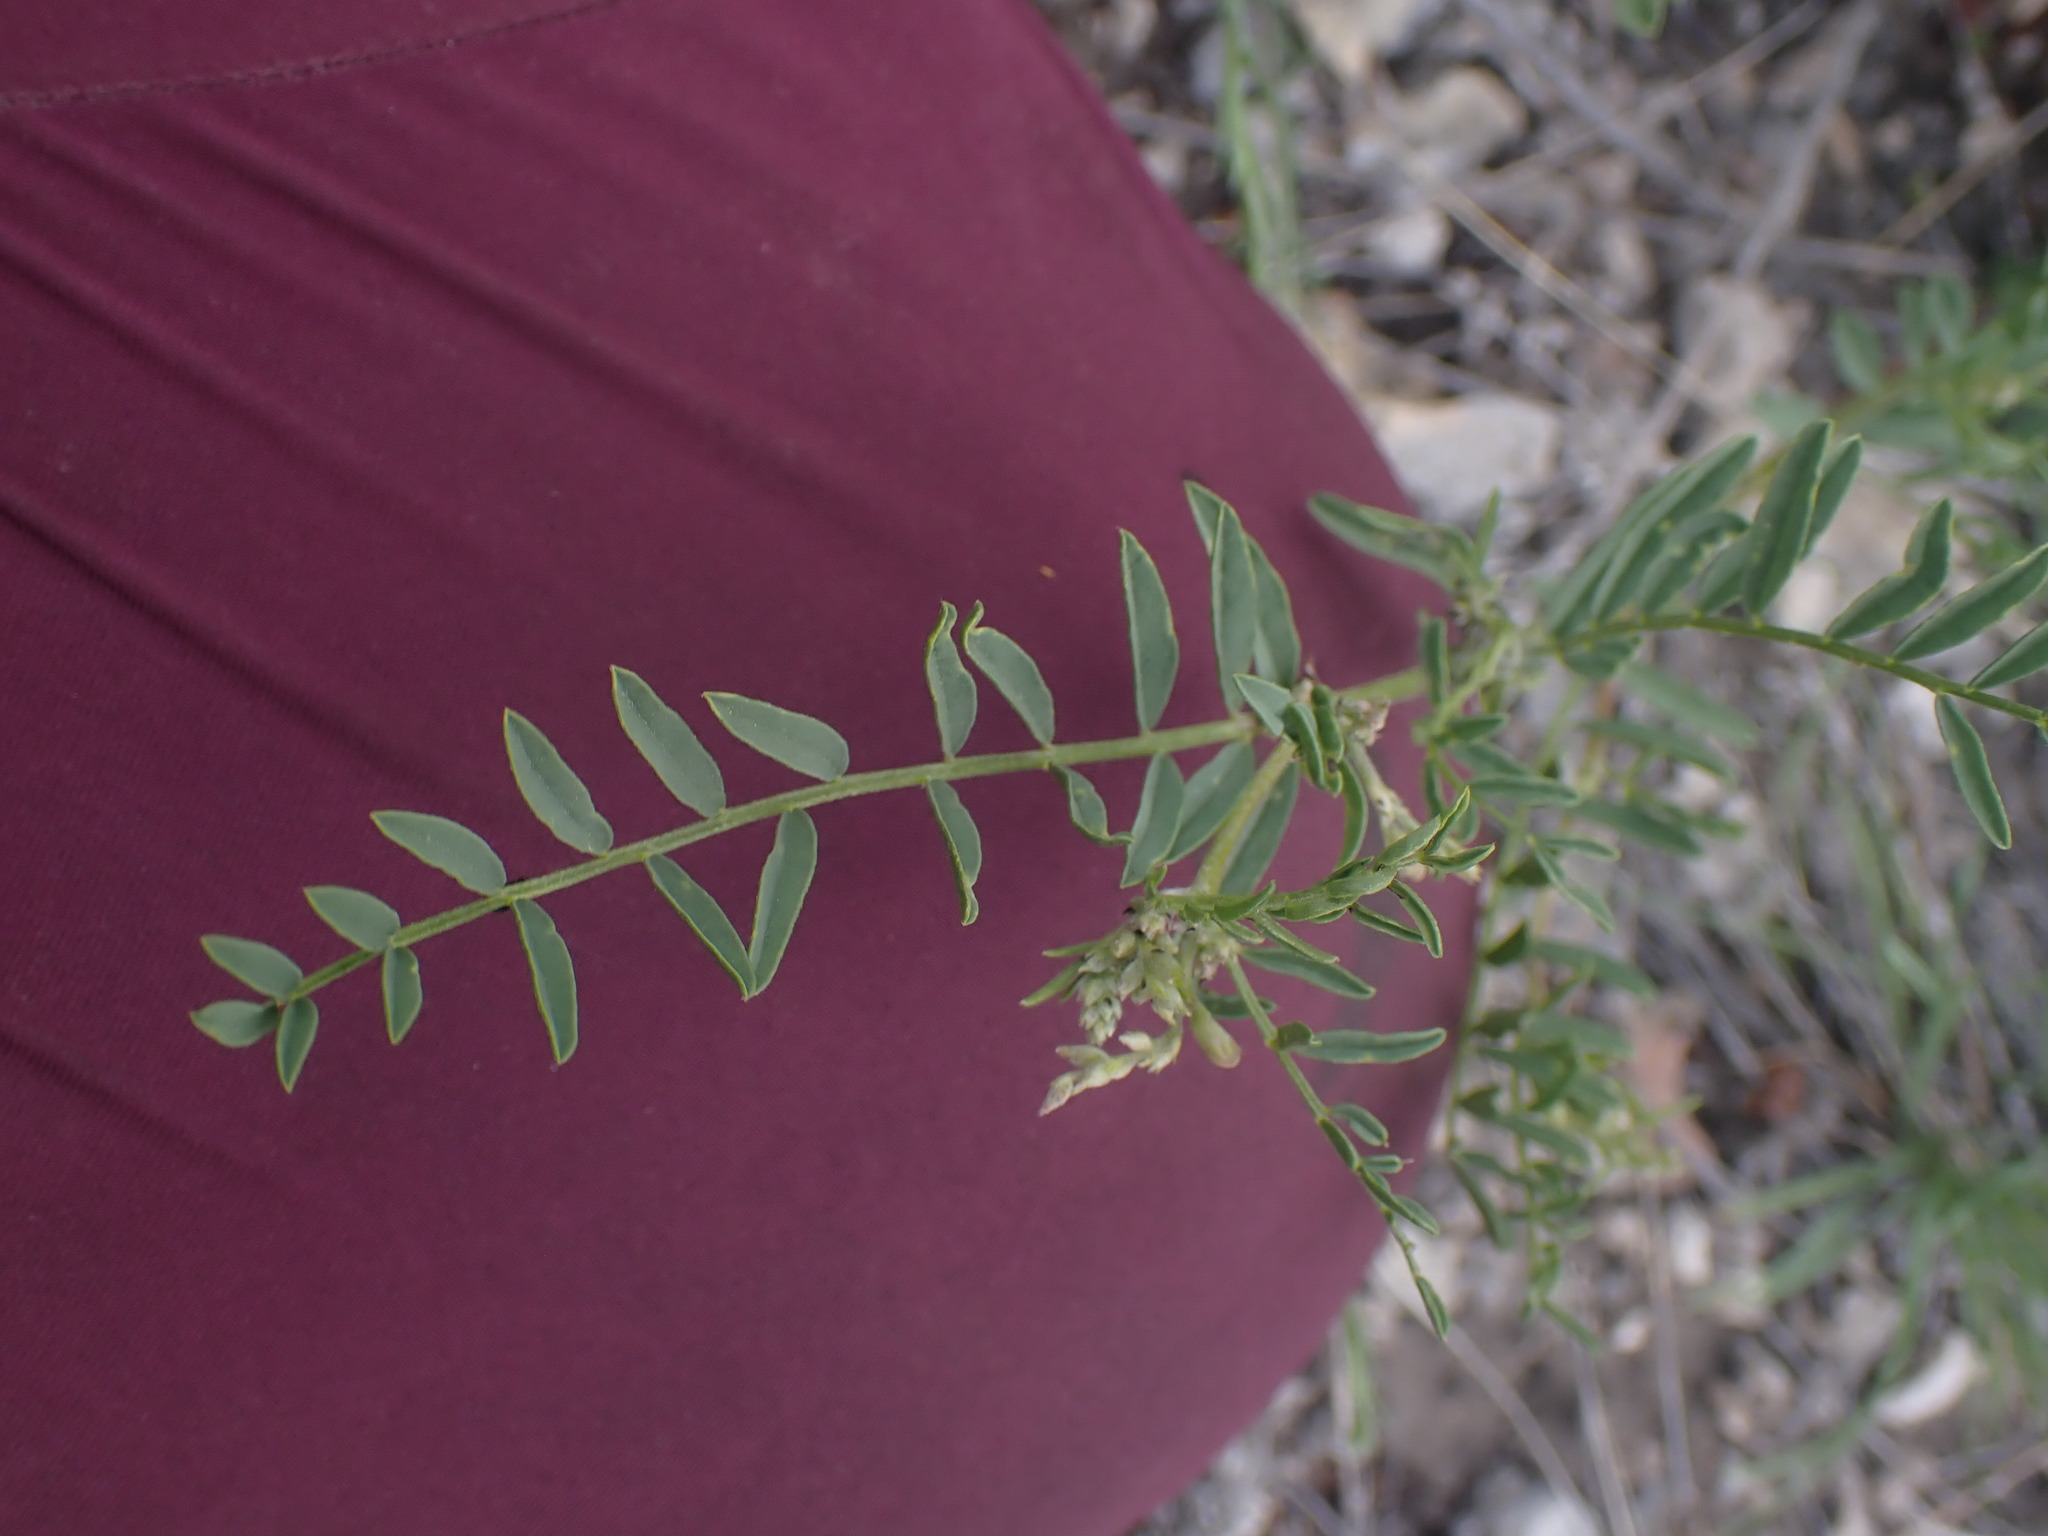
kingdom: Plantae
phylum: Tracheophyta
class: Magnoliopsida
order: Fabales
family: Fabaceae
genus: Astragalus
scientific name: Astragalus tenellus
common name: Pulse milk-vetch
